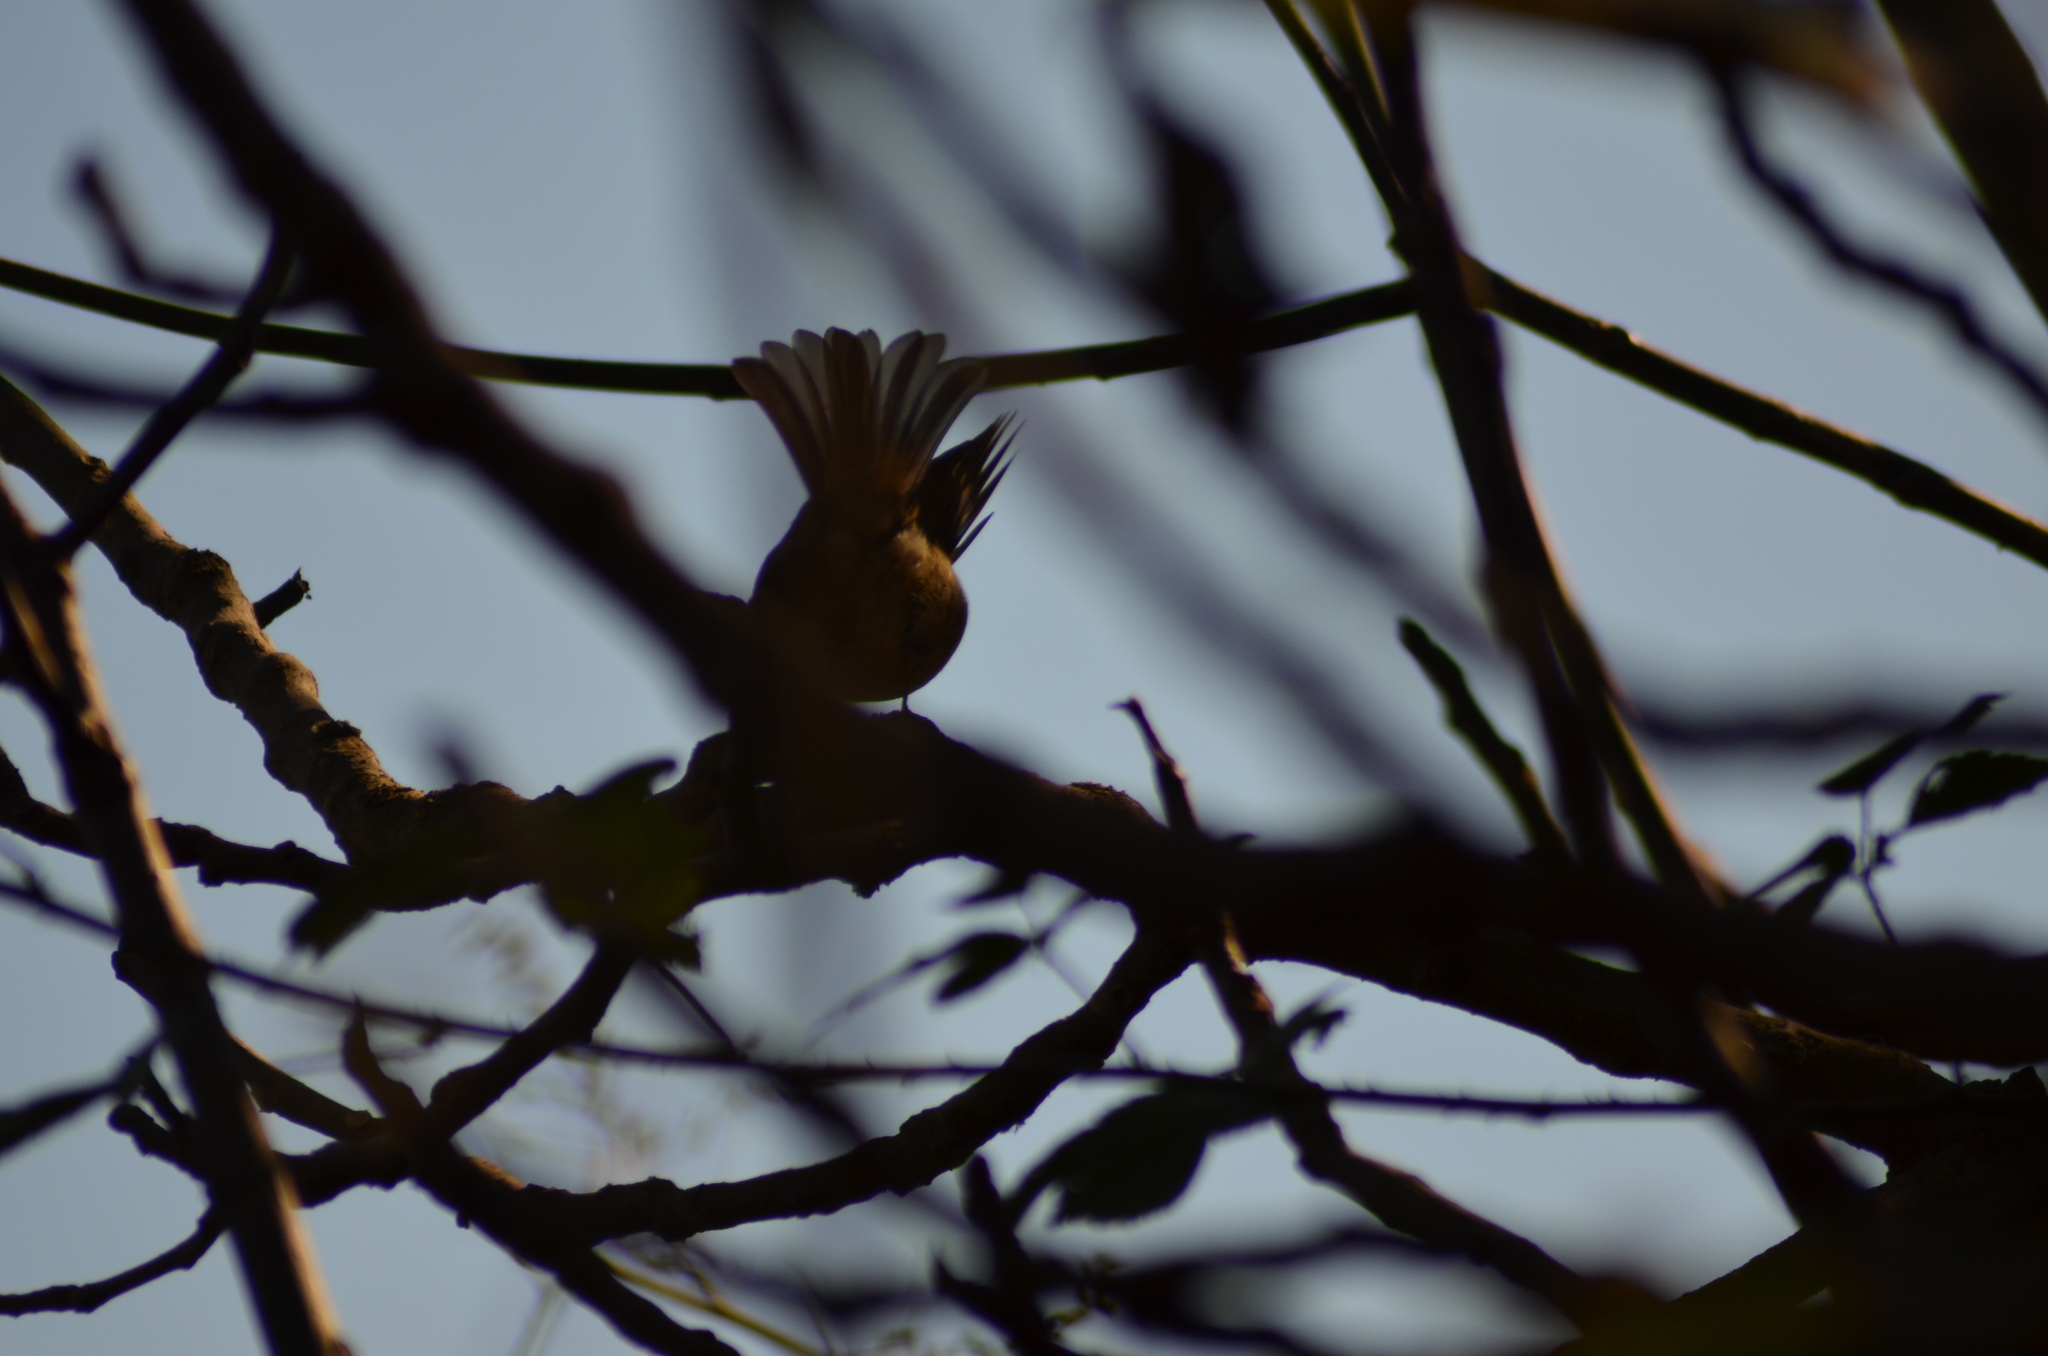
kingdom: Animalia
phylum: Chordata
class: Aves
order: Passeriformes
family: Muscicapidae
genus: Erithacus
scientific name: Erithacus rubecula
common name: European robin
